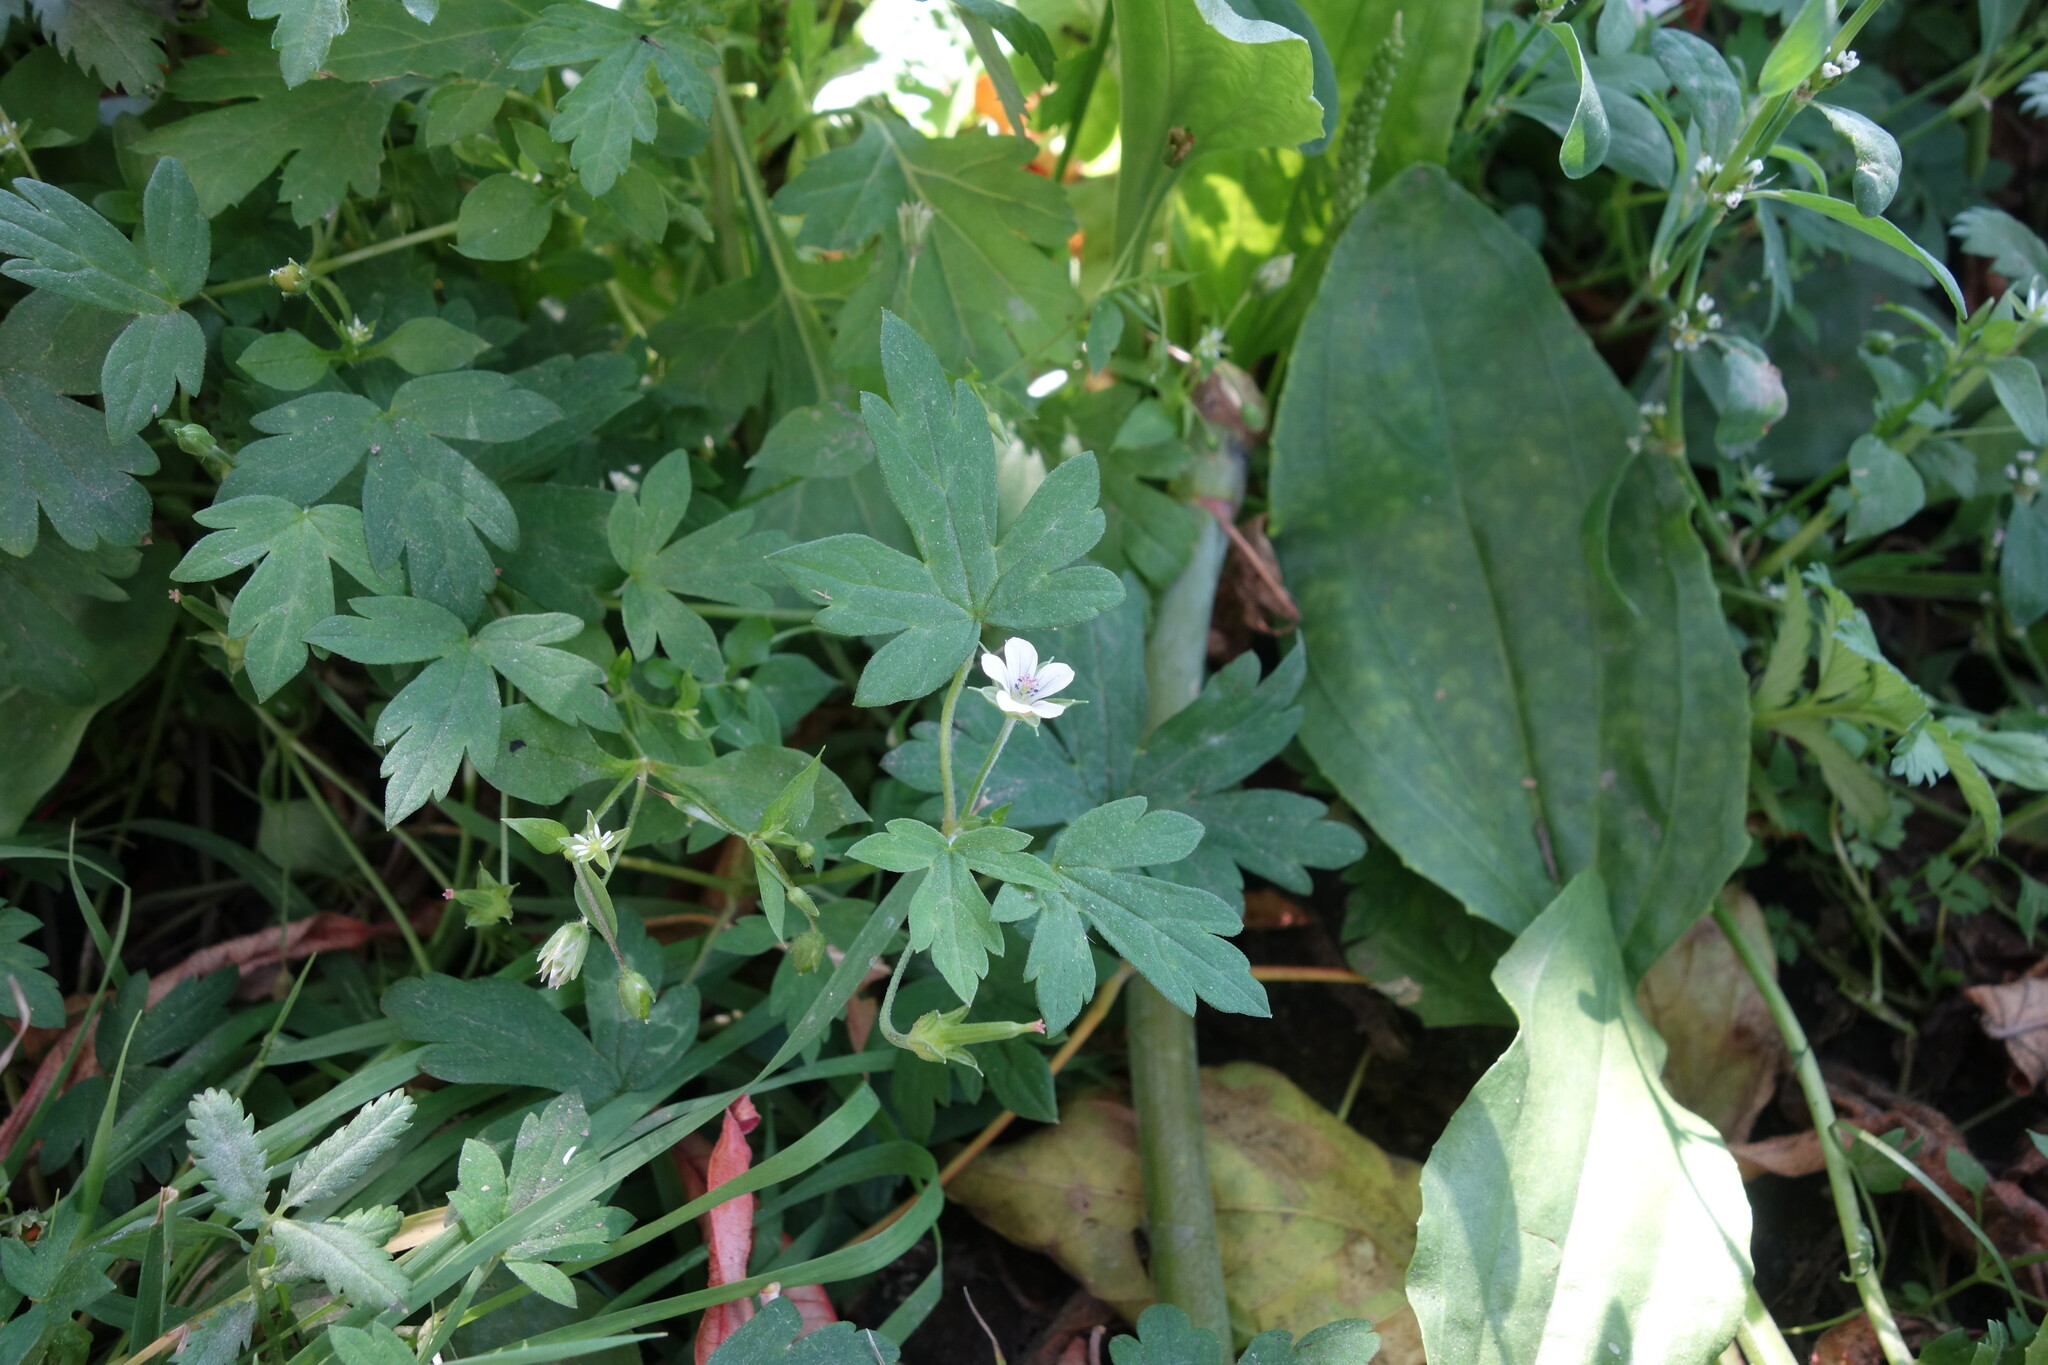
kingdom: Plantae
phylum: Tracheophyta
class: Magnoliopsida
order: Geraniales
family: Geraniaceae
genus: Geranium
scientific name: Geranium sibiricum
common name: Siberian crane's-bill
